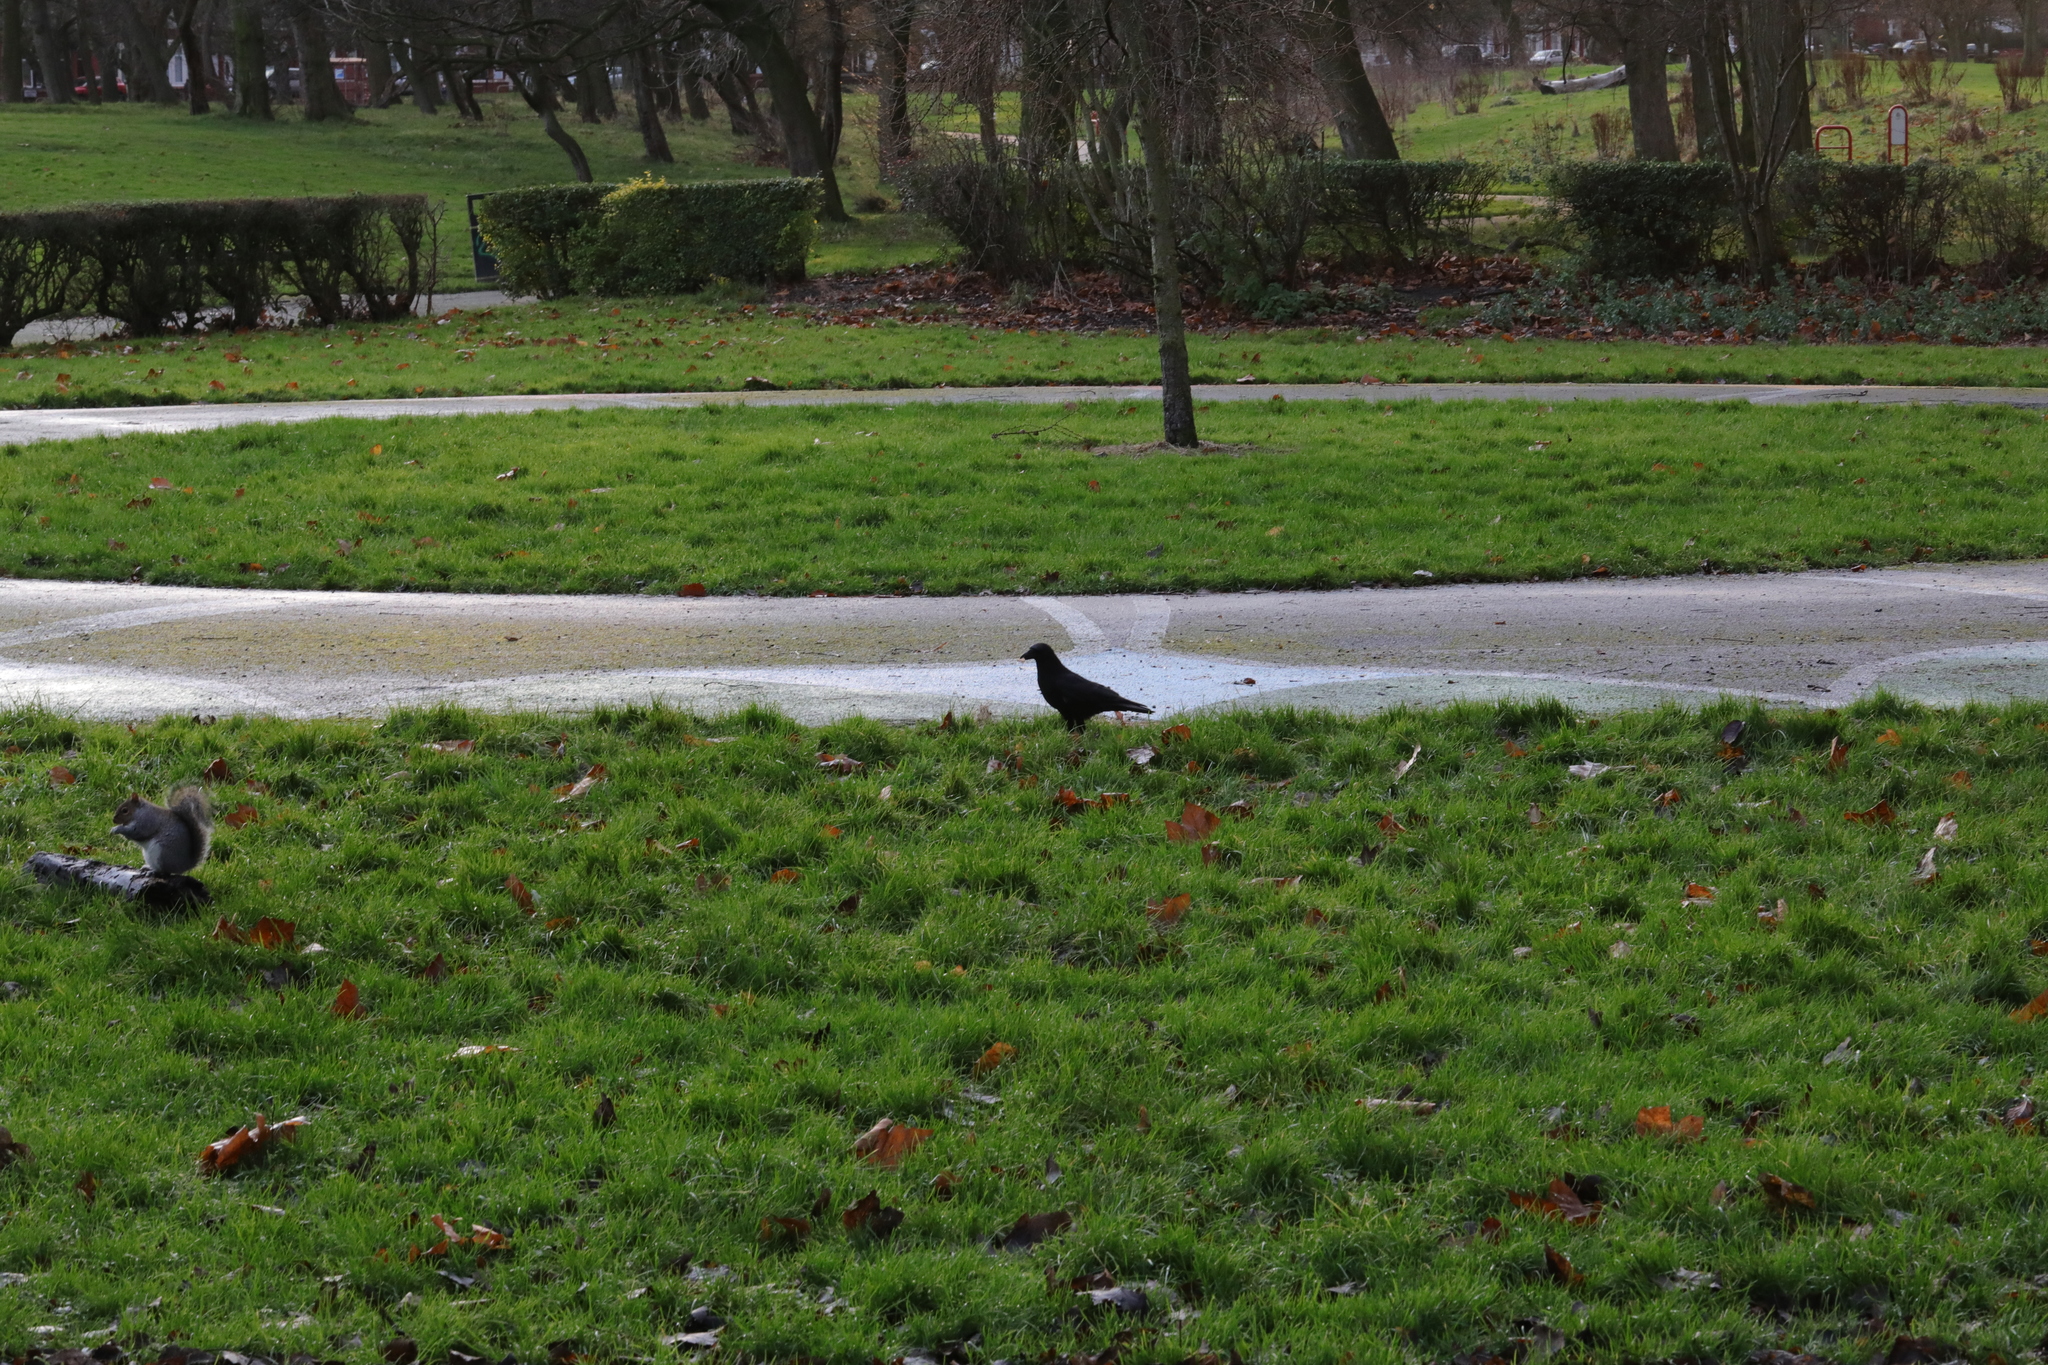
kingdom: Animalia
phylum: Chordata
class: Aves
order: Passeriformes
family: Corvidae
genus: Corvus
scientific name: Corvus corone
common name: Carrion crow
